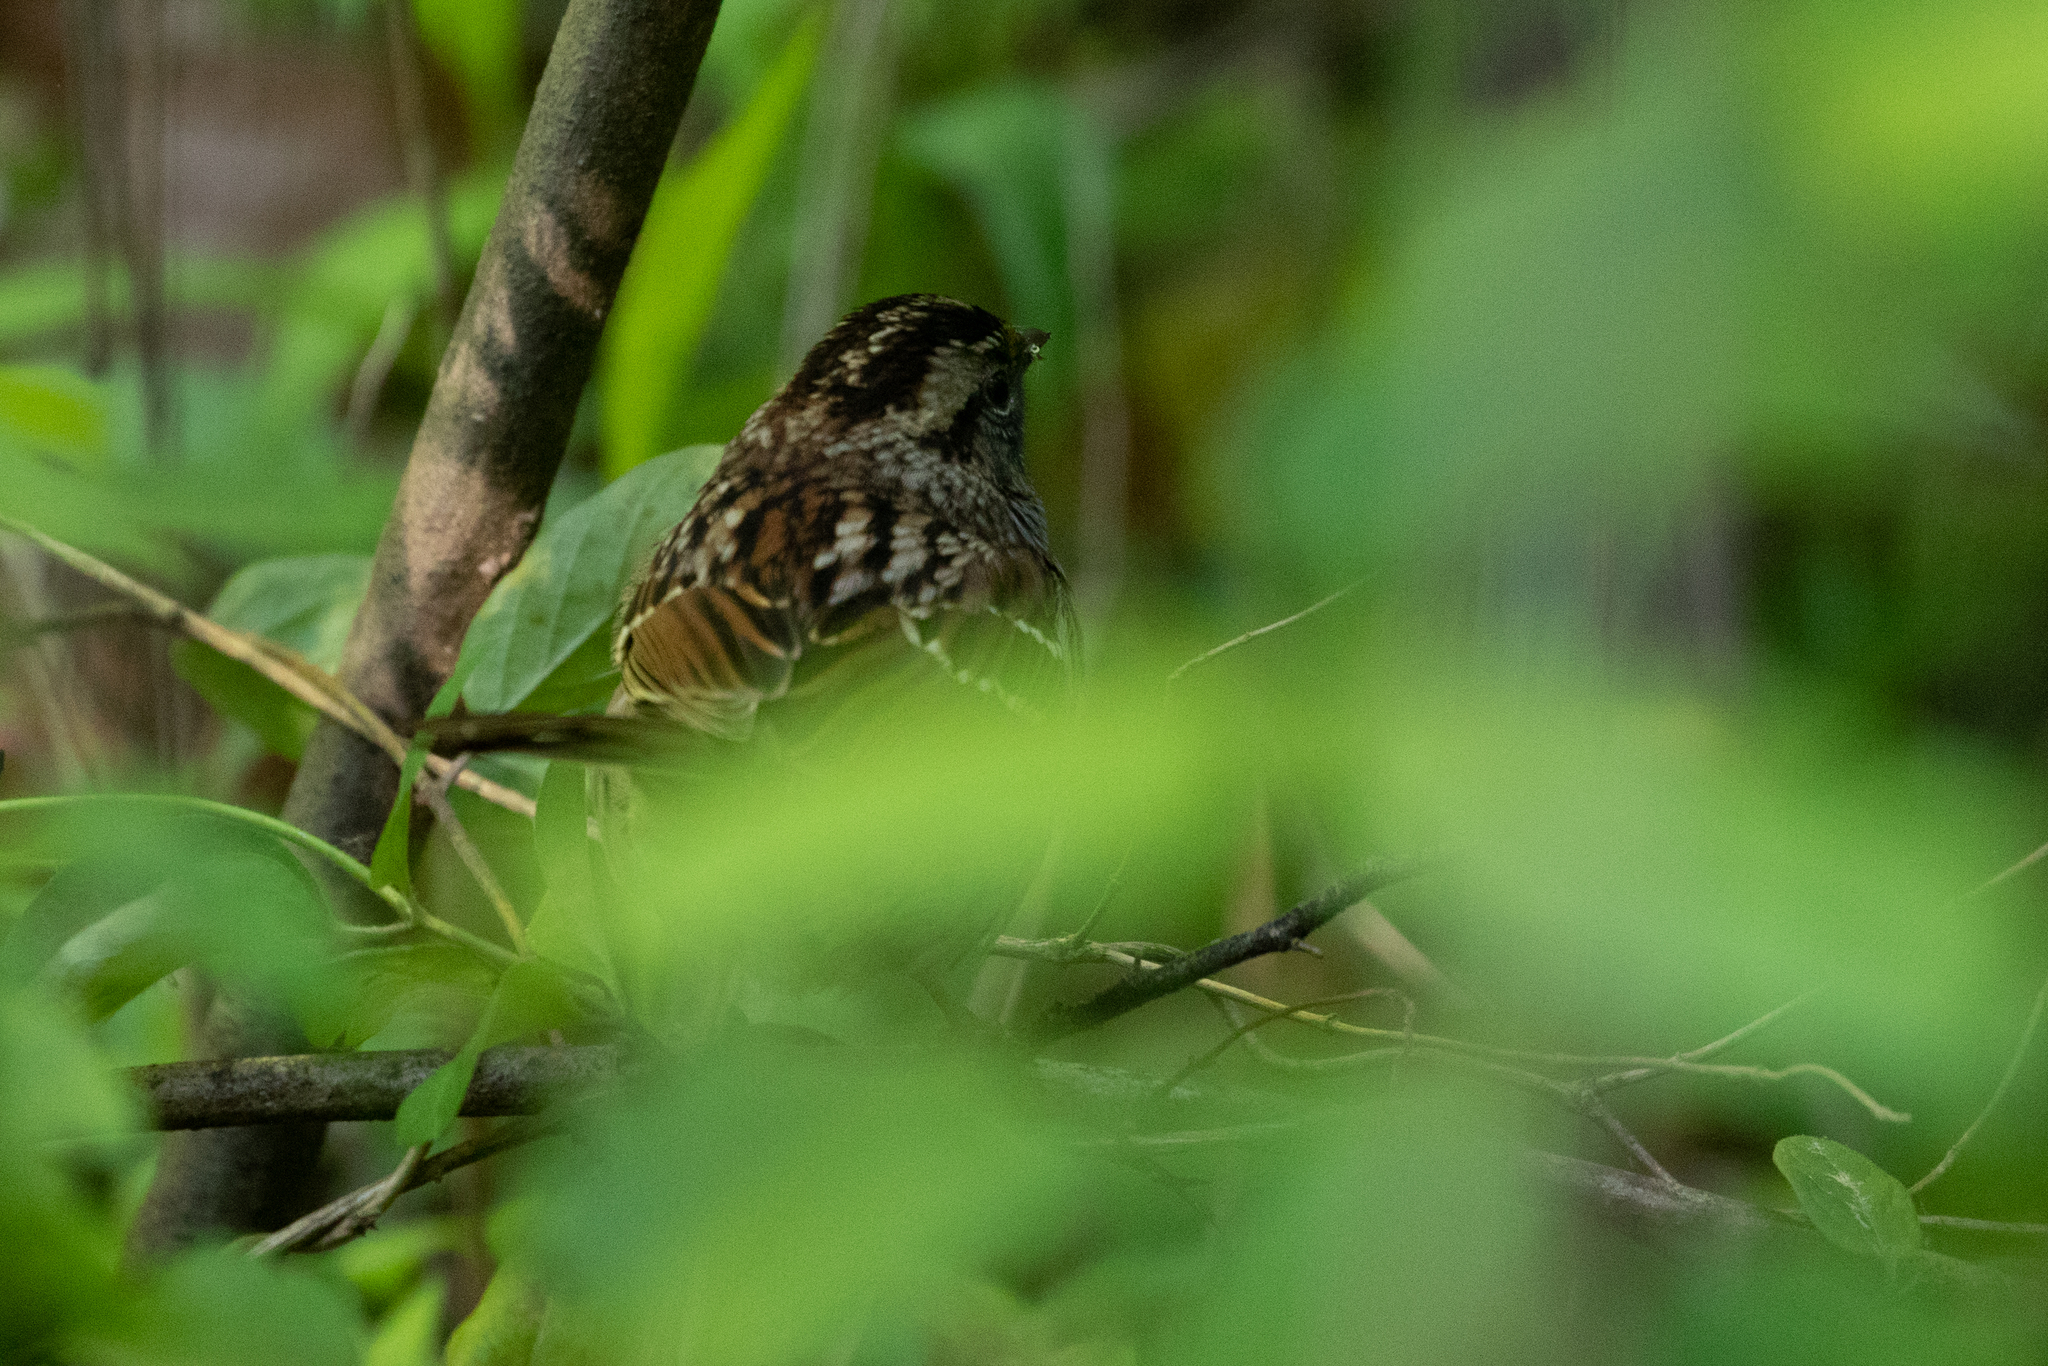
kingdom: Animalia
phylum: Chordata
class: Aves
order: Passeriformes
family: Passerellidae
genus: Zonotrichia
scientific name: Zonotrichia albicollis
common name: White-throated sparrow
